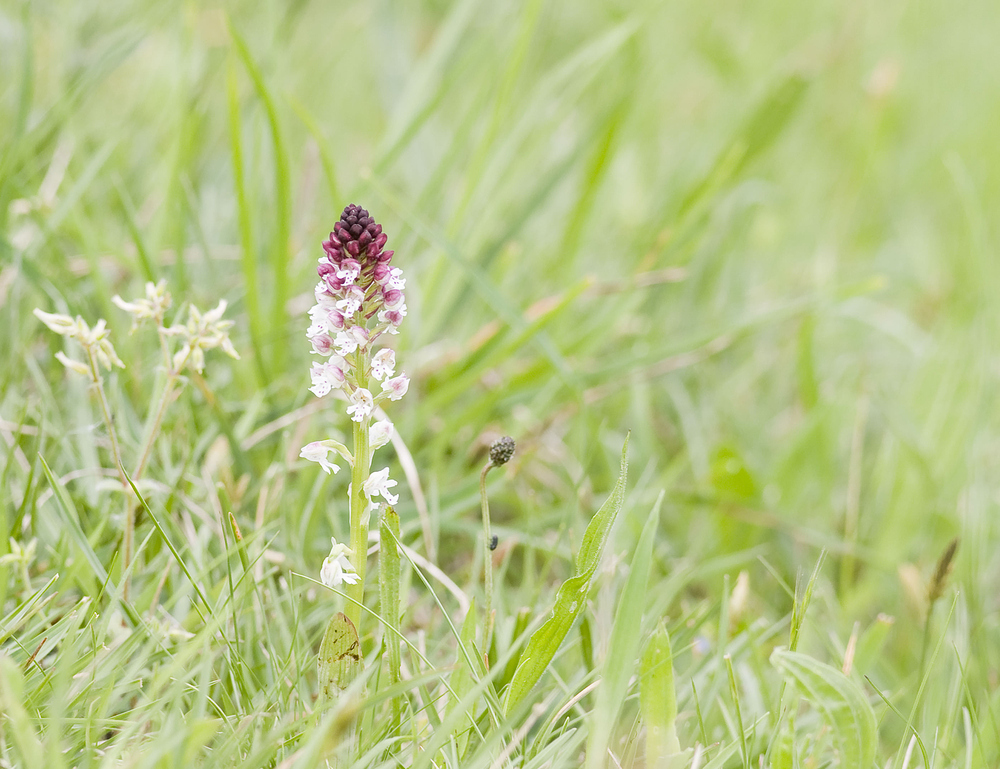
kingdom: Plantae
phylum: Tracheophyta
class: Liliopsida
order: Asparagales
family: Orchidaceae
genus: Neotinea
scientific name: Neotinea ustulata
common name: Burnt orchid
